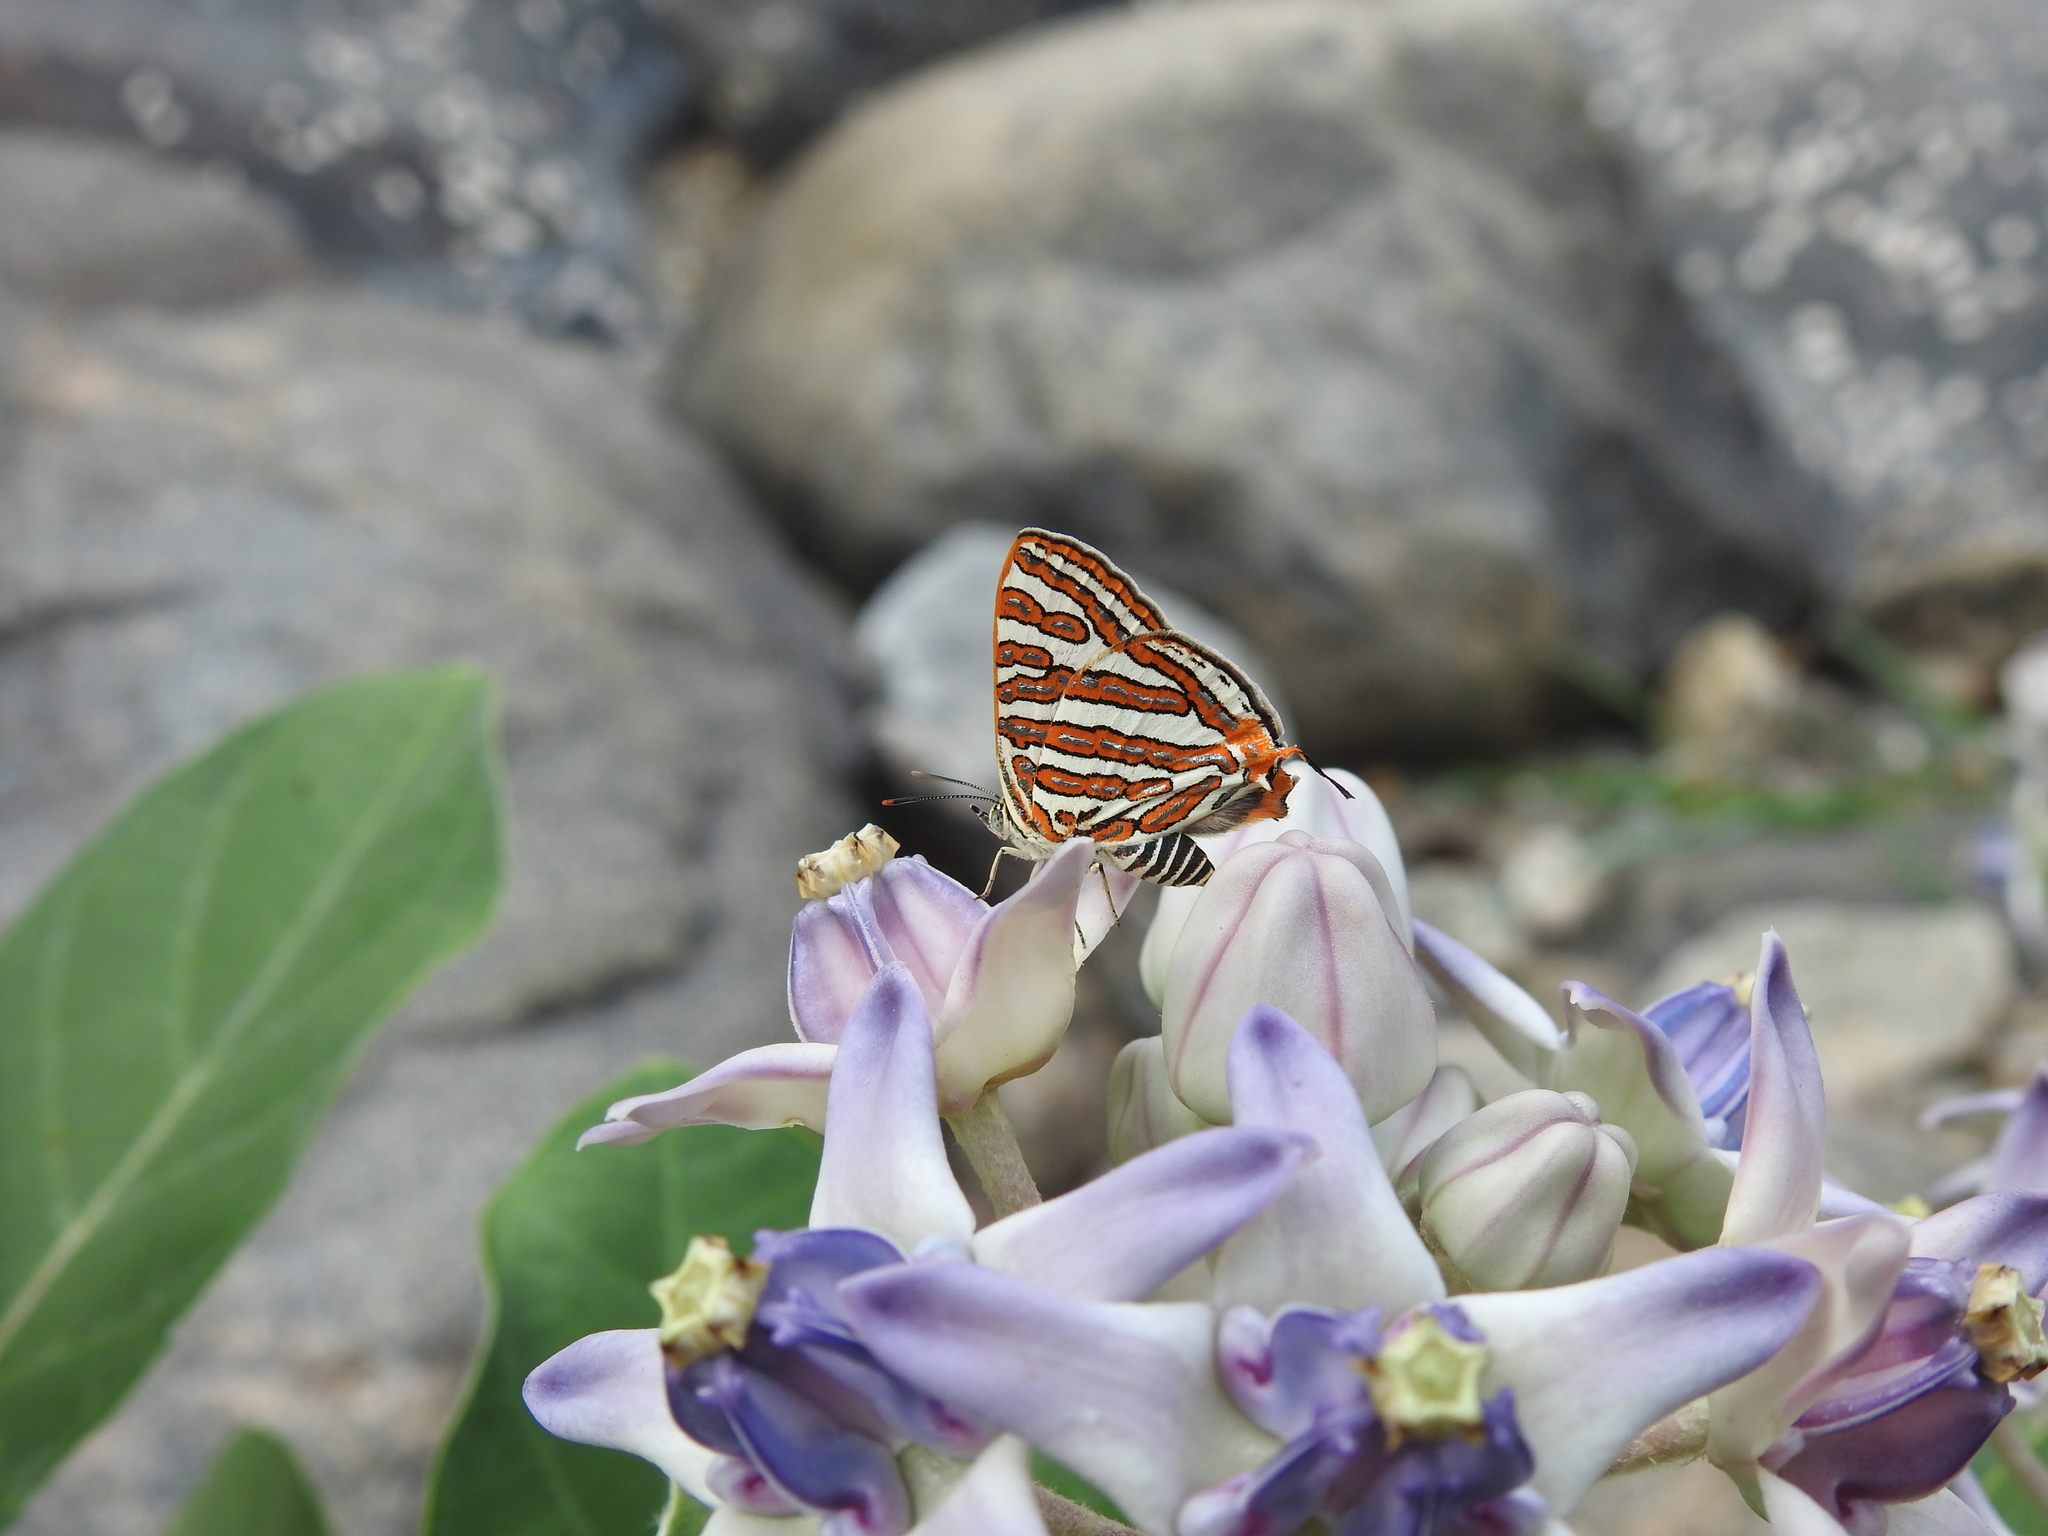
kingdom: Animalia
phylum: Arthropoda
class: Insecta
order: Lepidoptera
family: Lycaenidae
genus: Cigaritis
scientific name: Cigaritis vulcanus
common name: Common silverline
